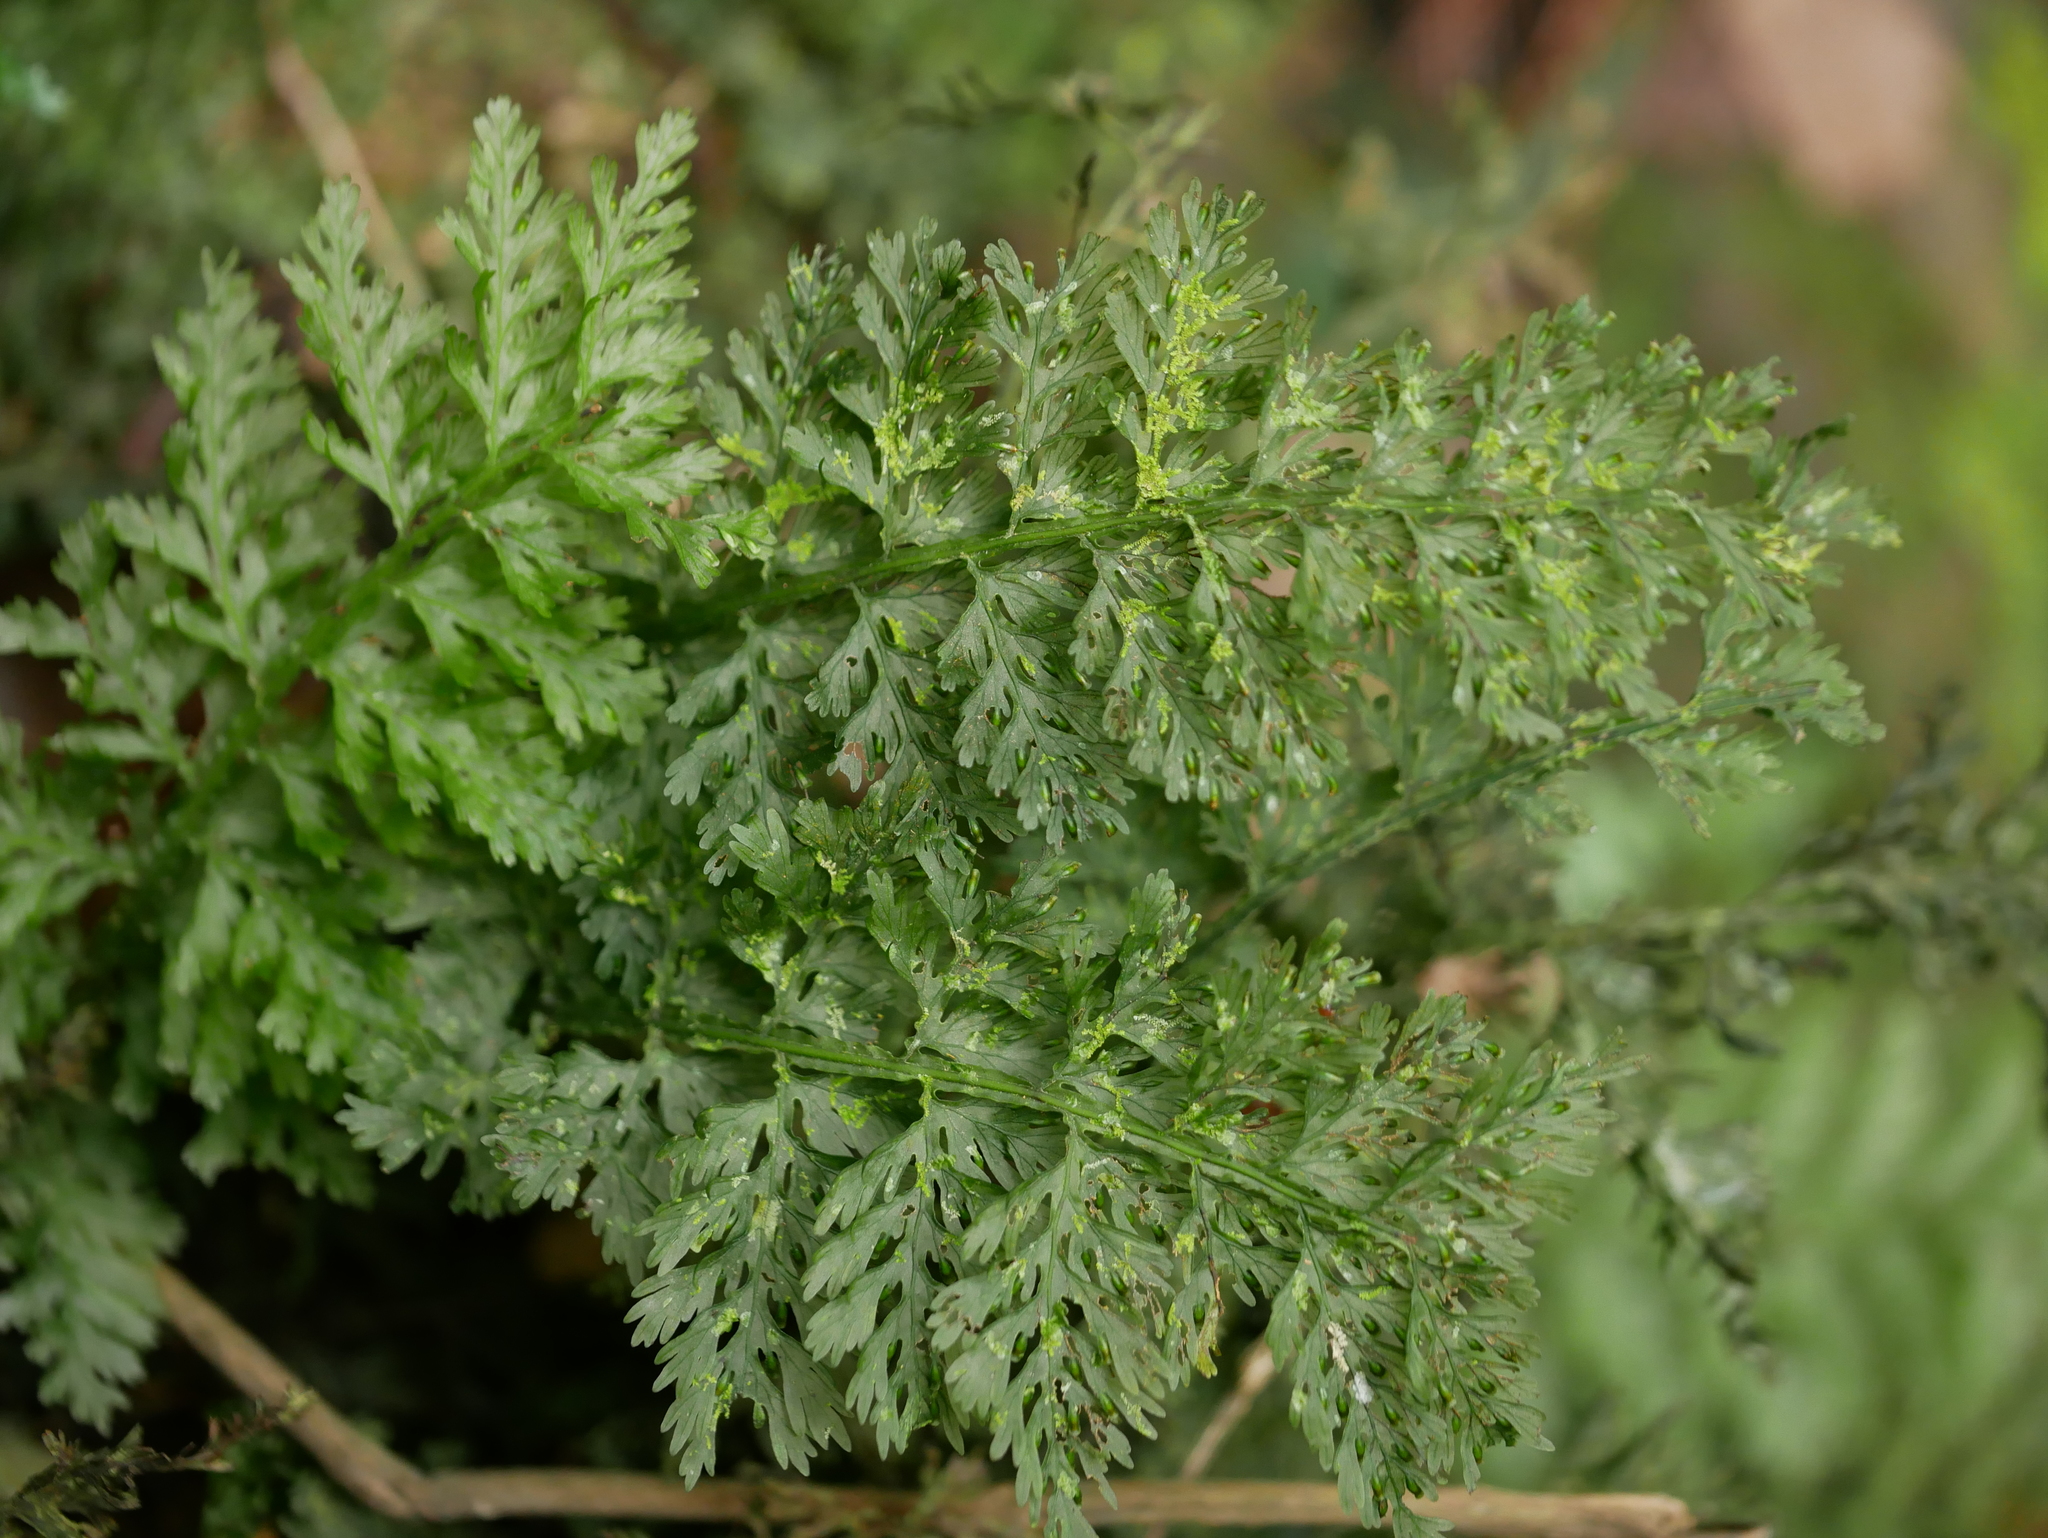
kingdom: Plantae
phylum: Tracheophyta
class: Polypodiopsida
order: Hymenophyllales
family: Hymenophyllaceae
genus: Vandenboschia
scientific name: Vandenboschia kalamocarpa
